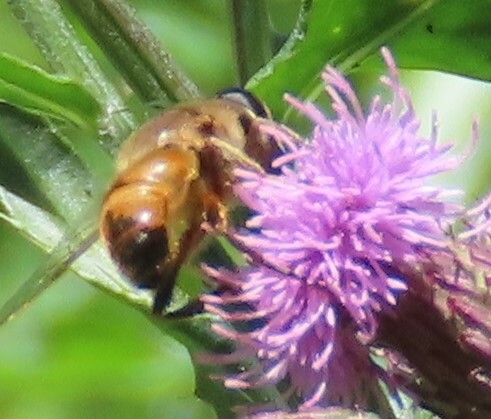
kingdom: Animalia
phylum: Arthropoda
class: Insecta
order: Diptera
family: Syrphidae
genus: Eristalis
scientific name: Eristalis tenax
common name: Drone fly
